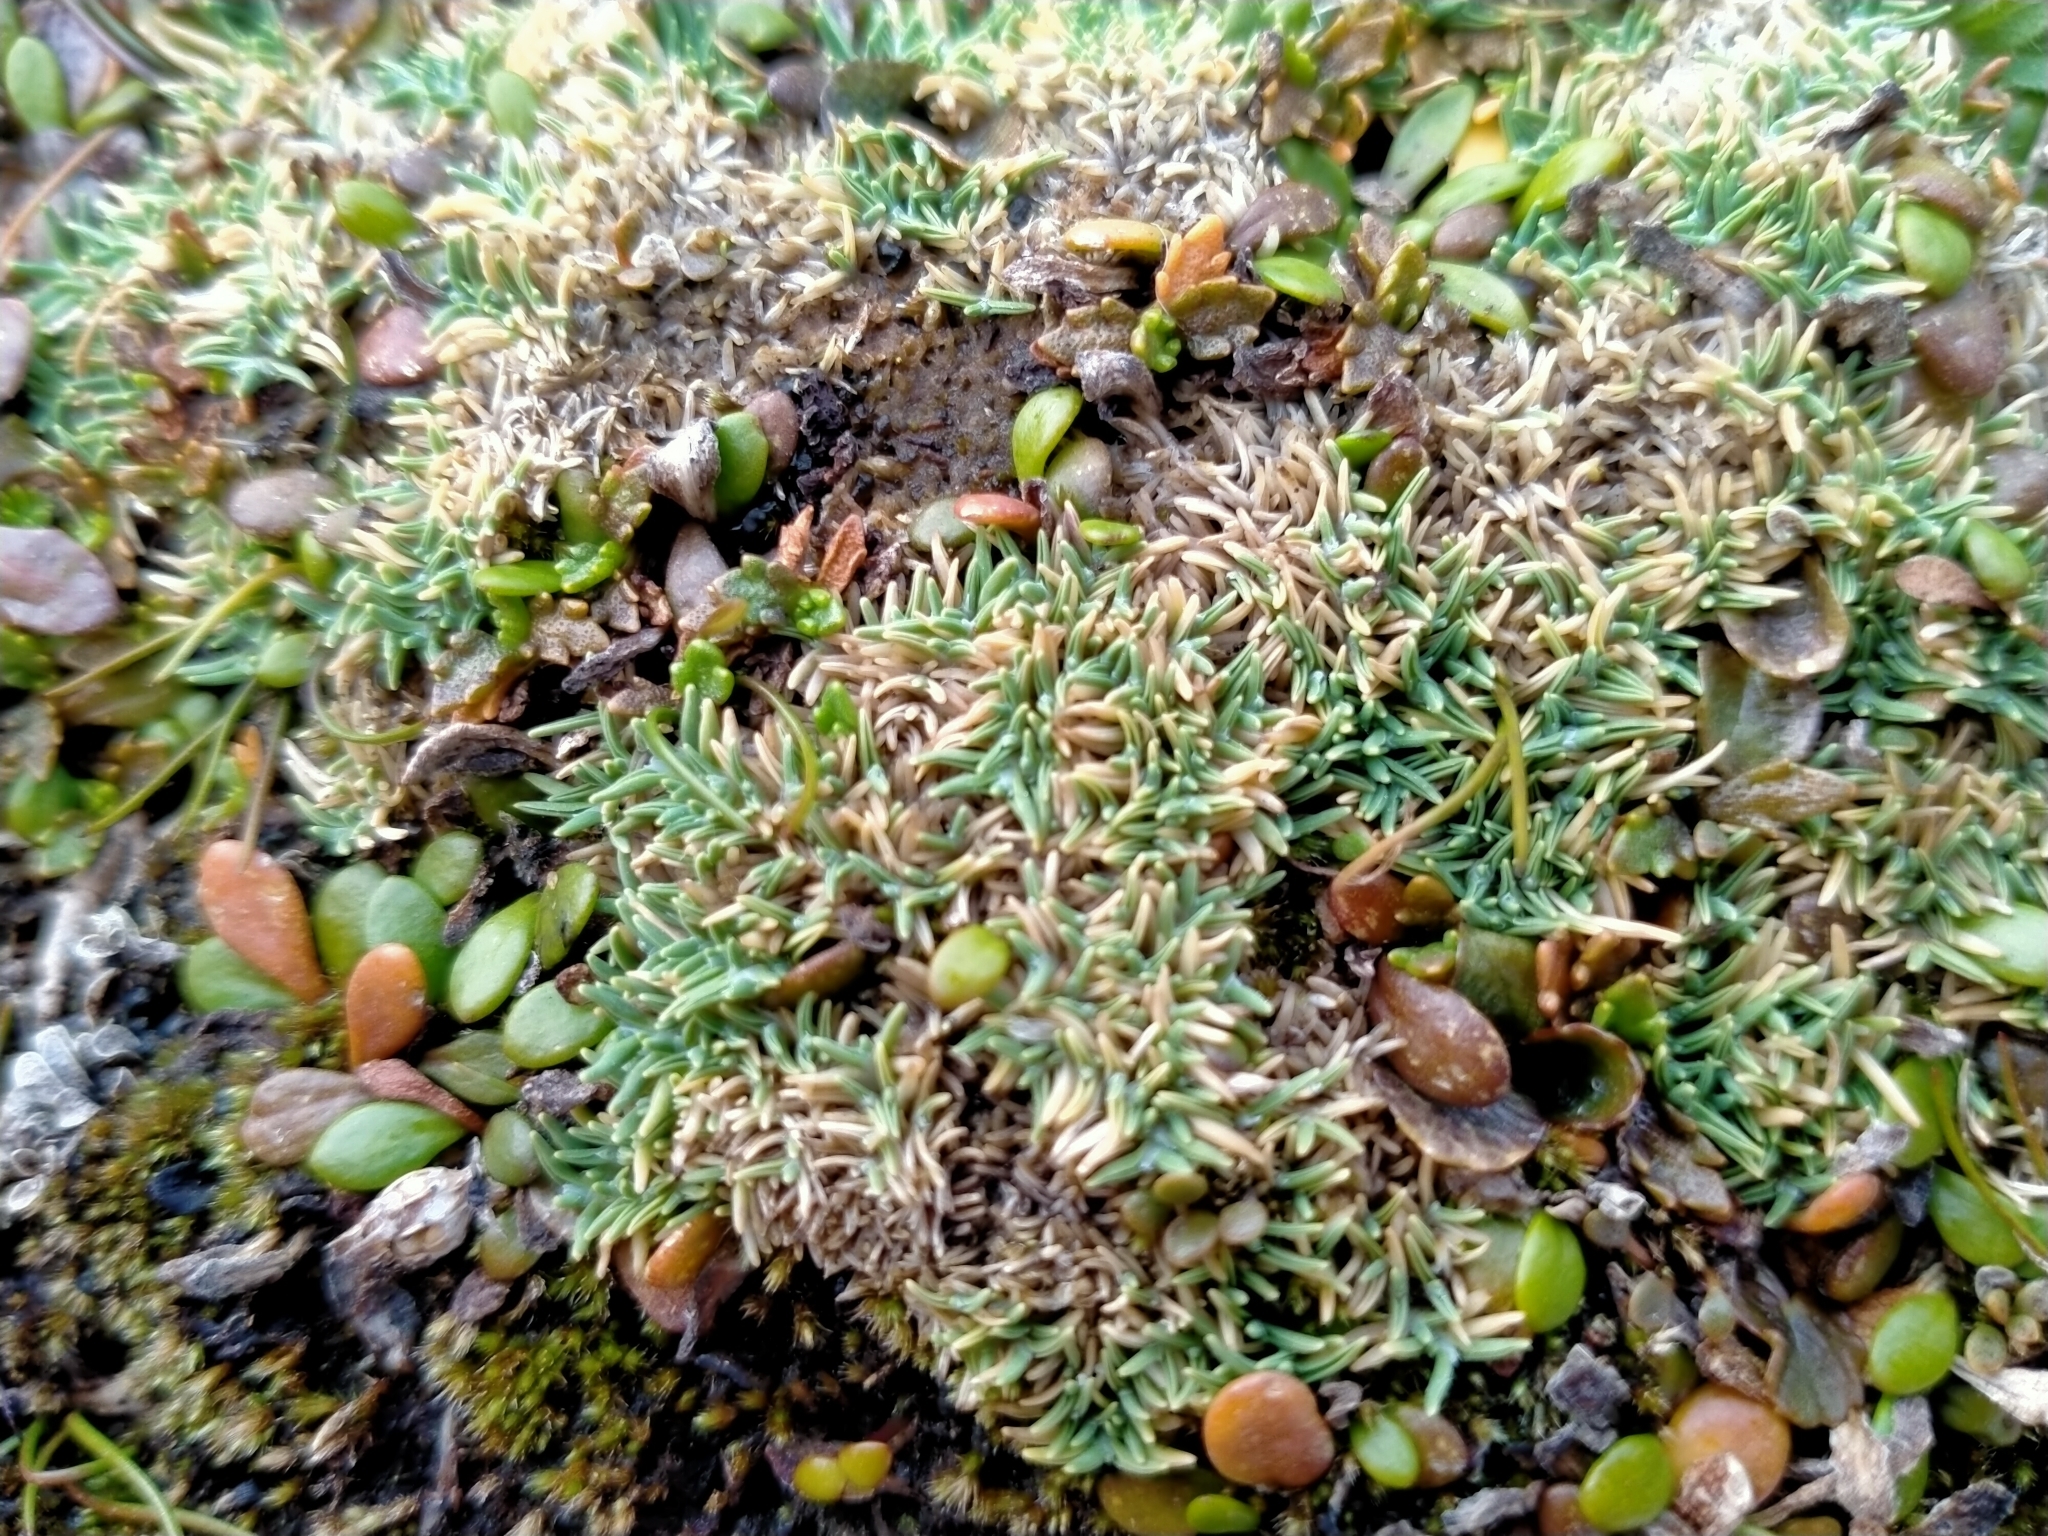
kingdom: Plantae
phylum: Tracheophyta
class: Liliopsida
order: Poales
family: Poaceae
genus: Agrostis
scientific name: Agrostis muscosa
